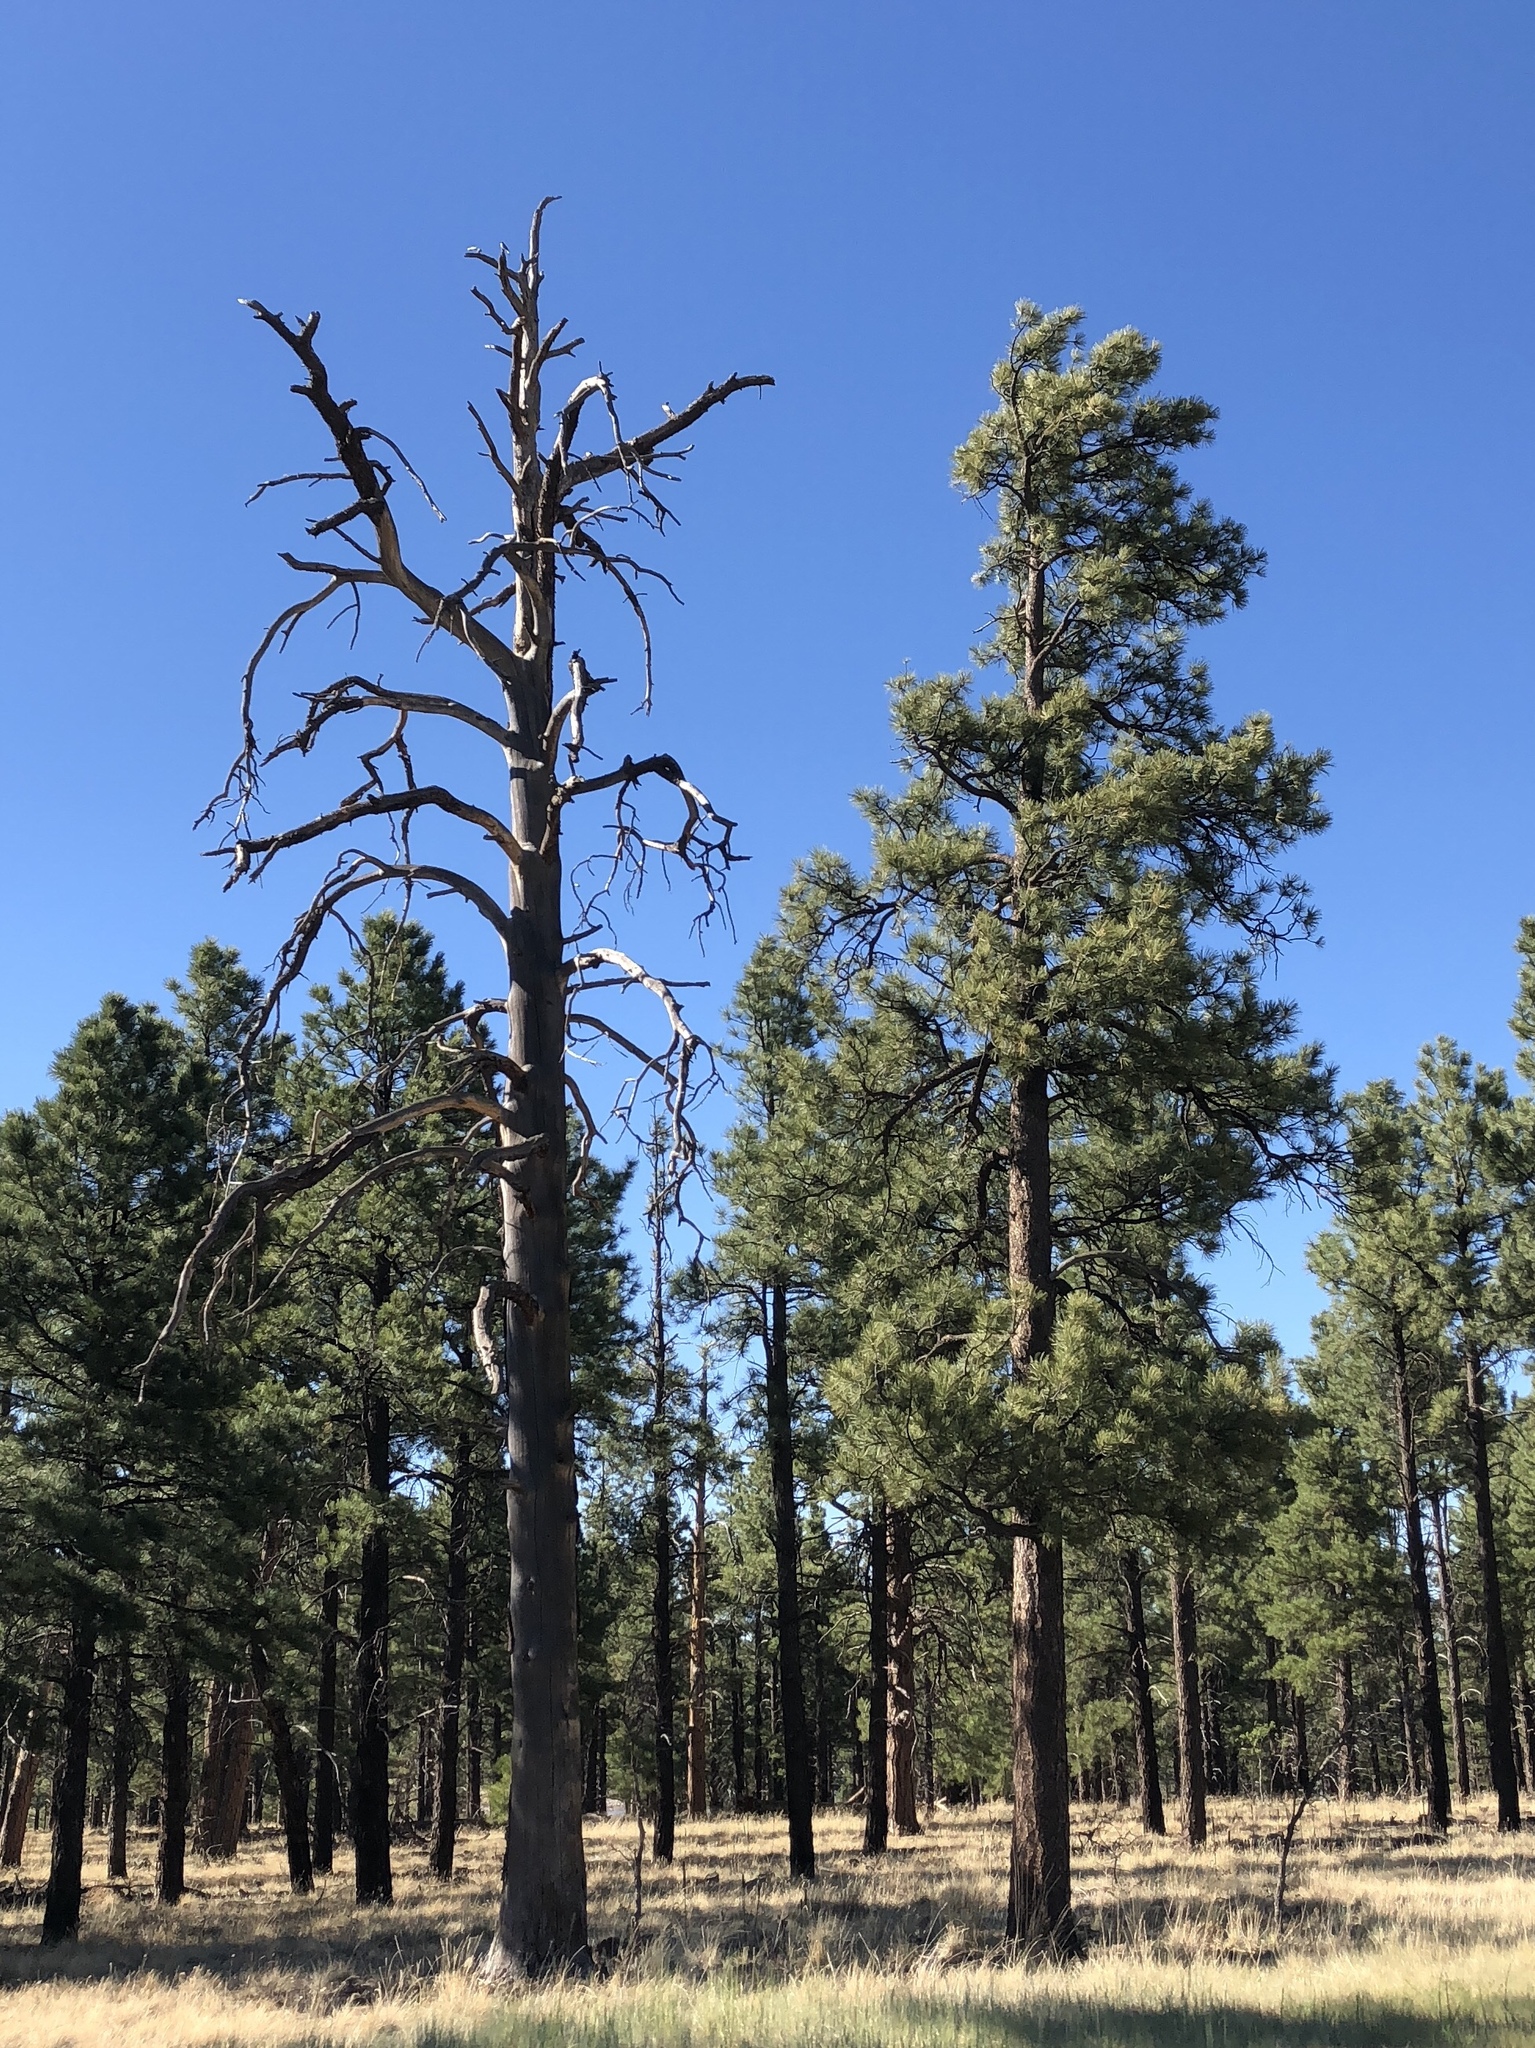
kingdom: Plantae
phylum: Tracheophyta
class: Pinopsida
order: Pinales
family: Pinaceae
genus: Pinus
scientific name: Pinus ponderosa
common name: Western yellow-pine
